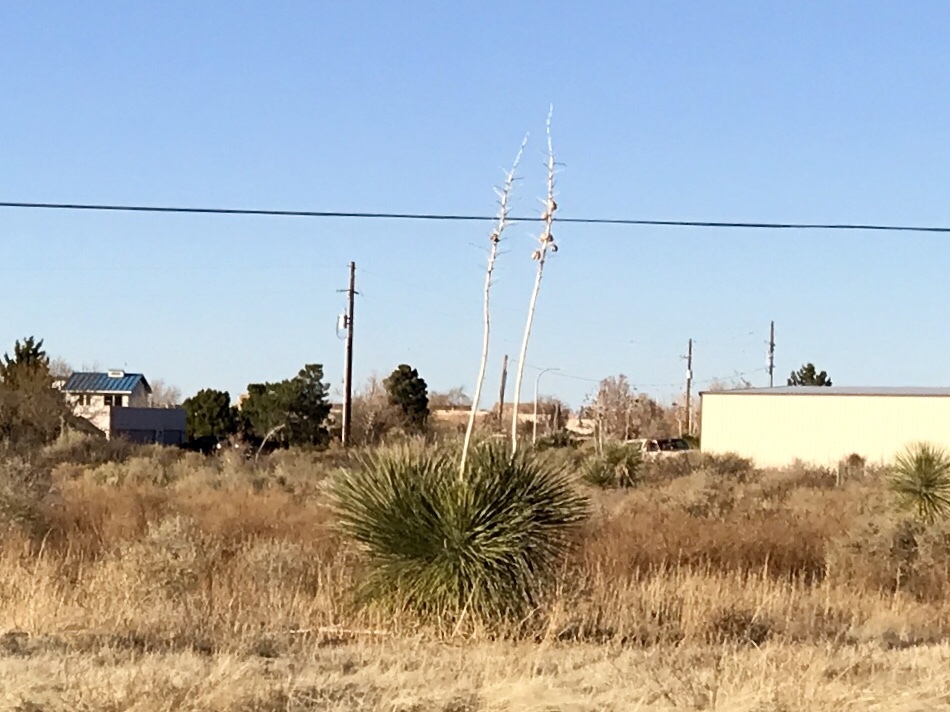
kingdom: Plantae
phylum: Tracheophyta
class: Liliopsida
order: Asparagales
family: Asparagaceae
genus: Yucca
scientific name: Yucca elata
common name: Palmella
